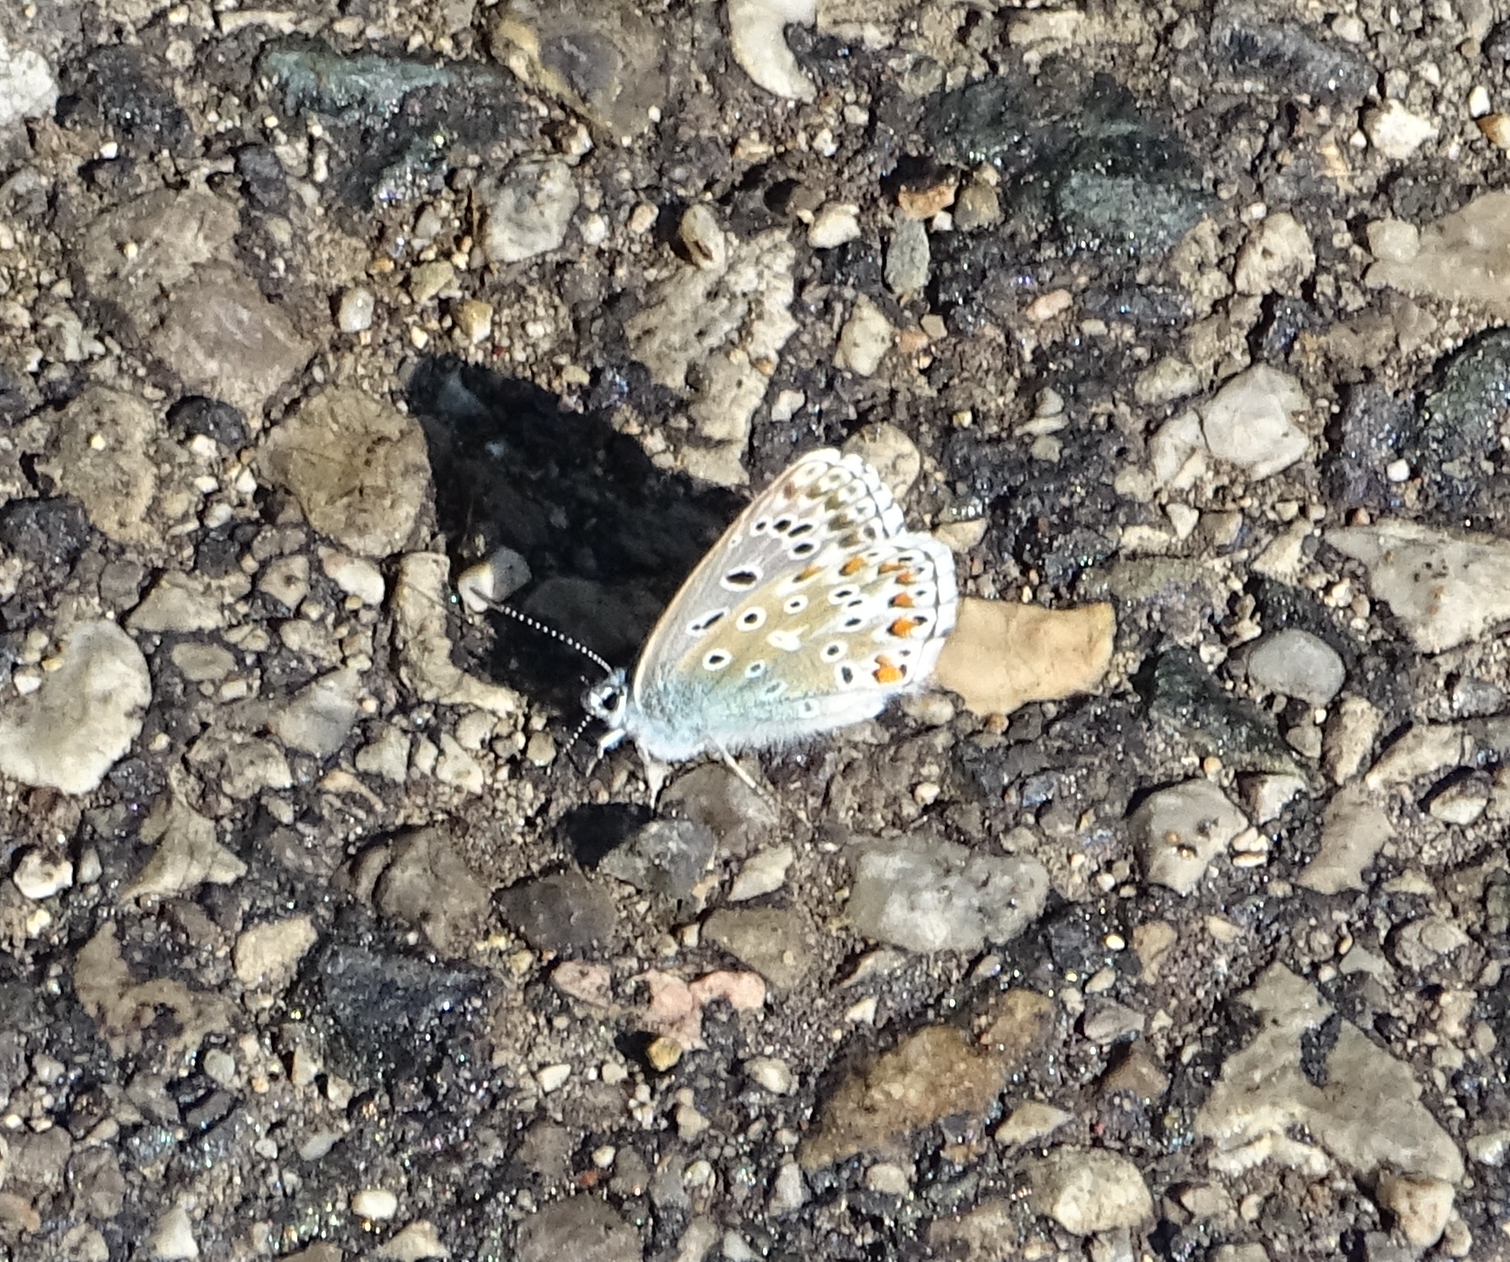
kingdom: Animalia
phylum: Arthropoda
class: Insecta
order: Lepidoptera
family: Lycaenidae
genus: Lysandra
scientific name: Lysandra bellargus
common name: Adonis blue
